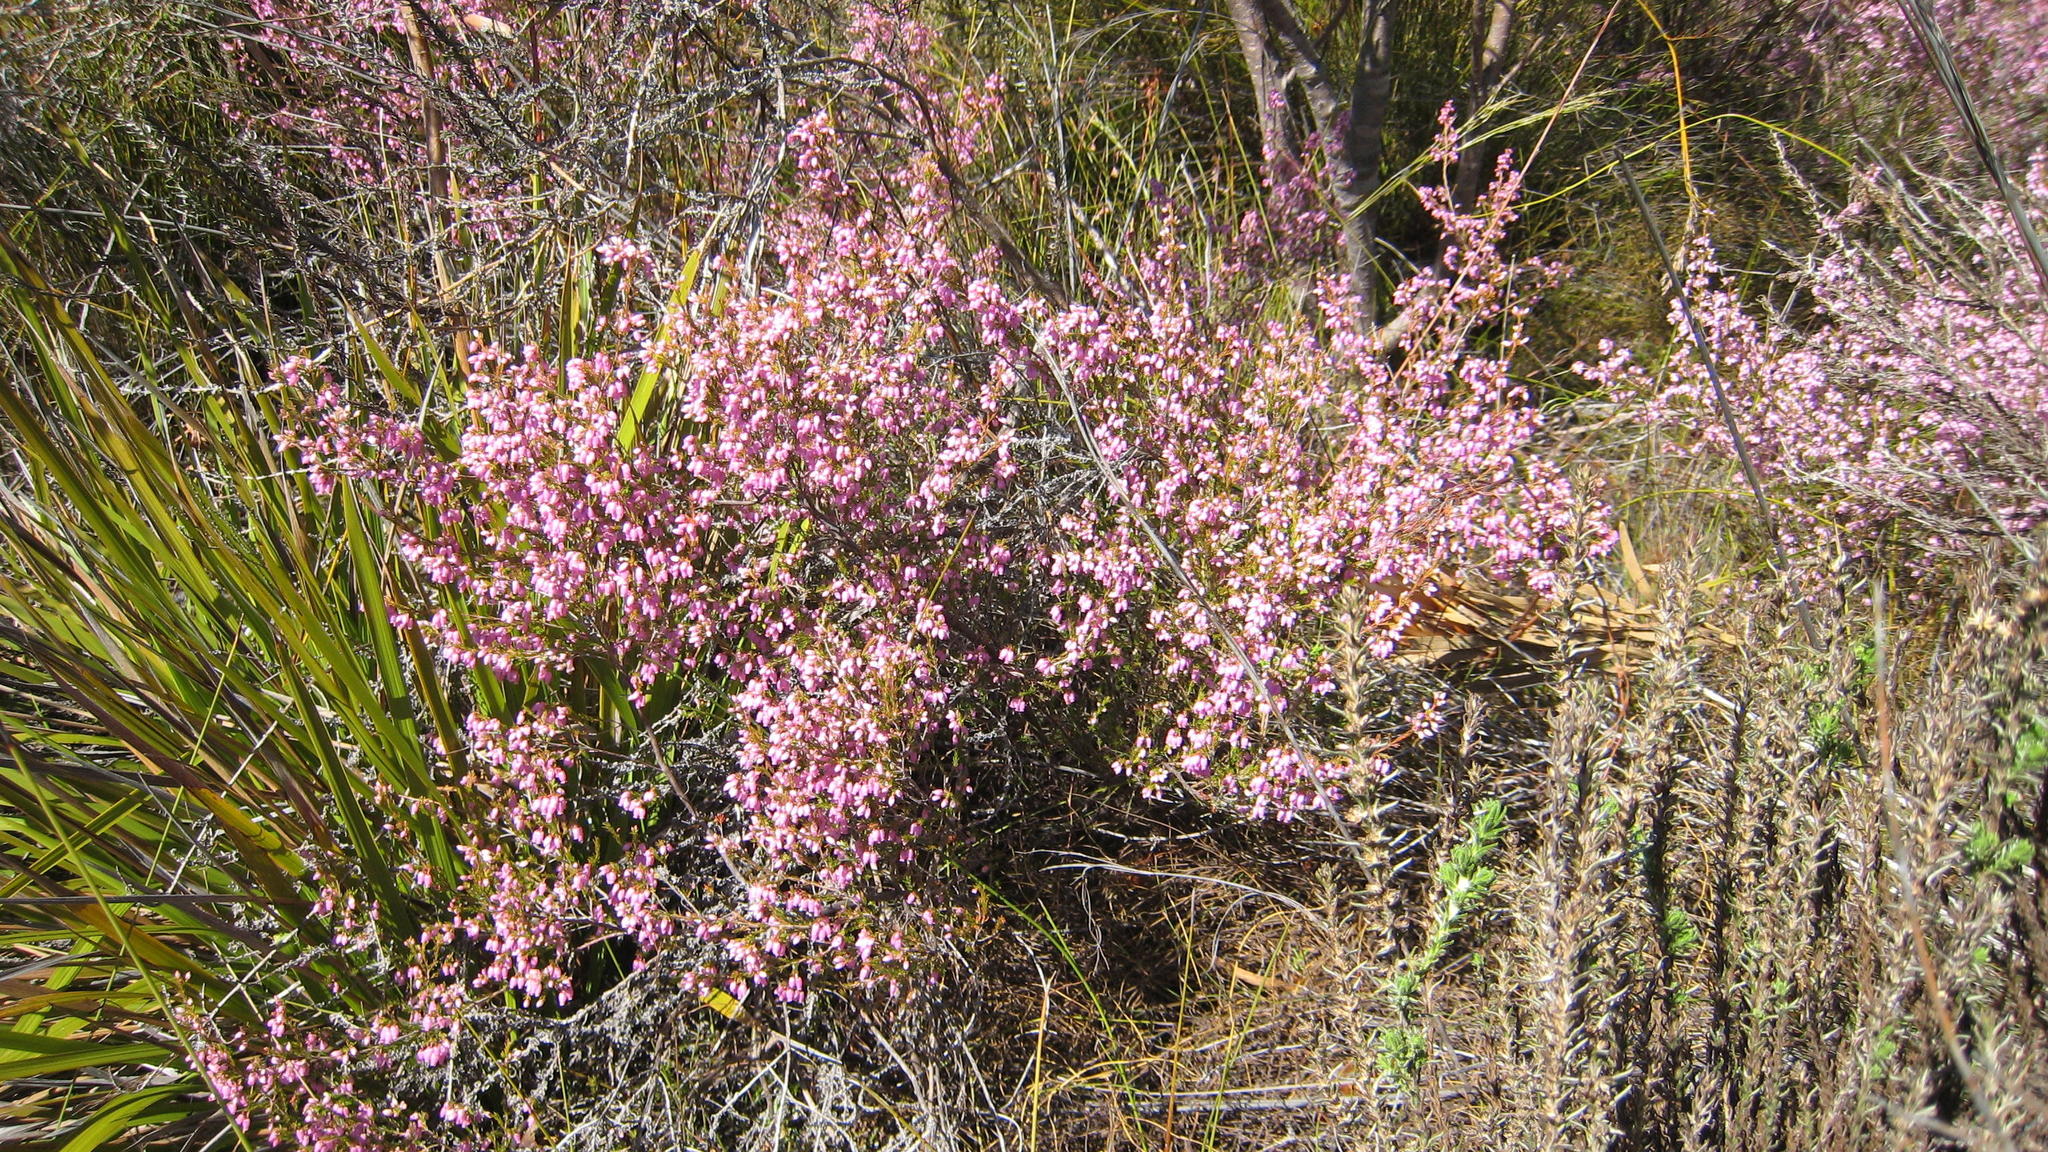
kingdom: Plantae
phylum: Tracheophyta
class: Magnoliopsida
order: Ericales
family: Ericaceae
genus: Erica
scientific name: Erica gracilis
